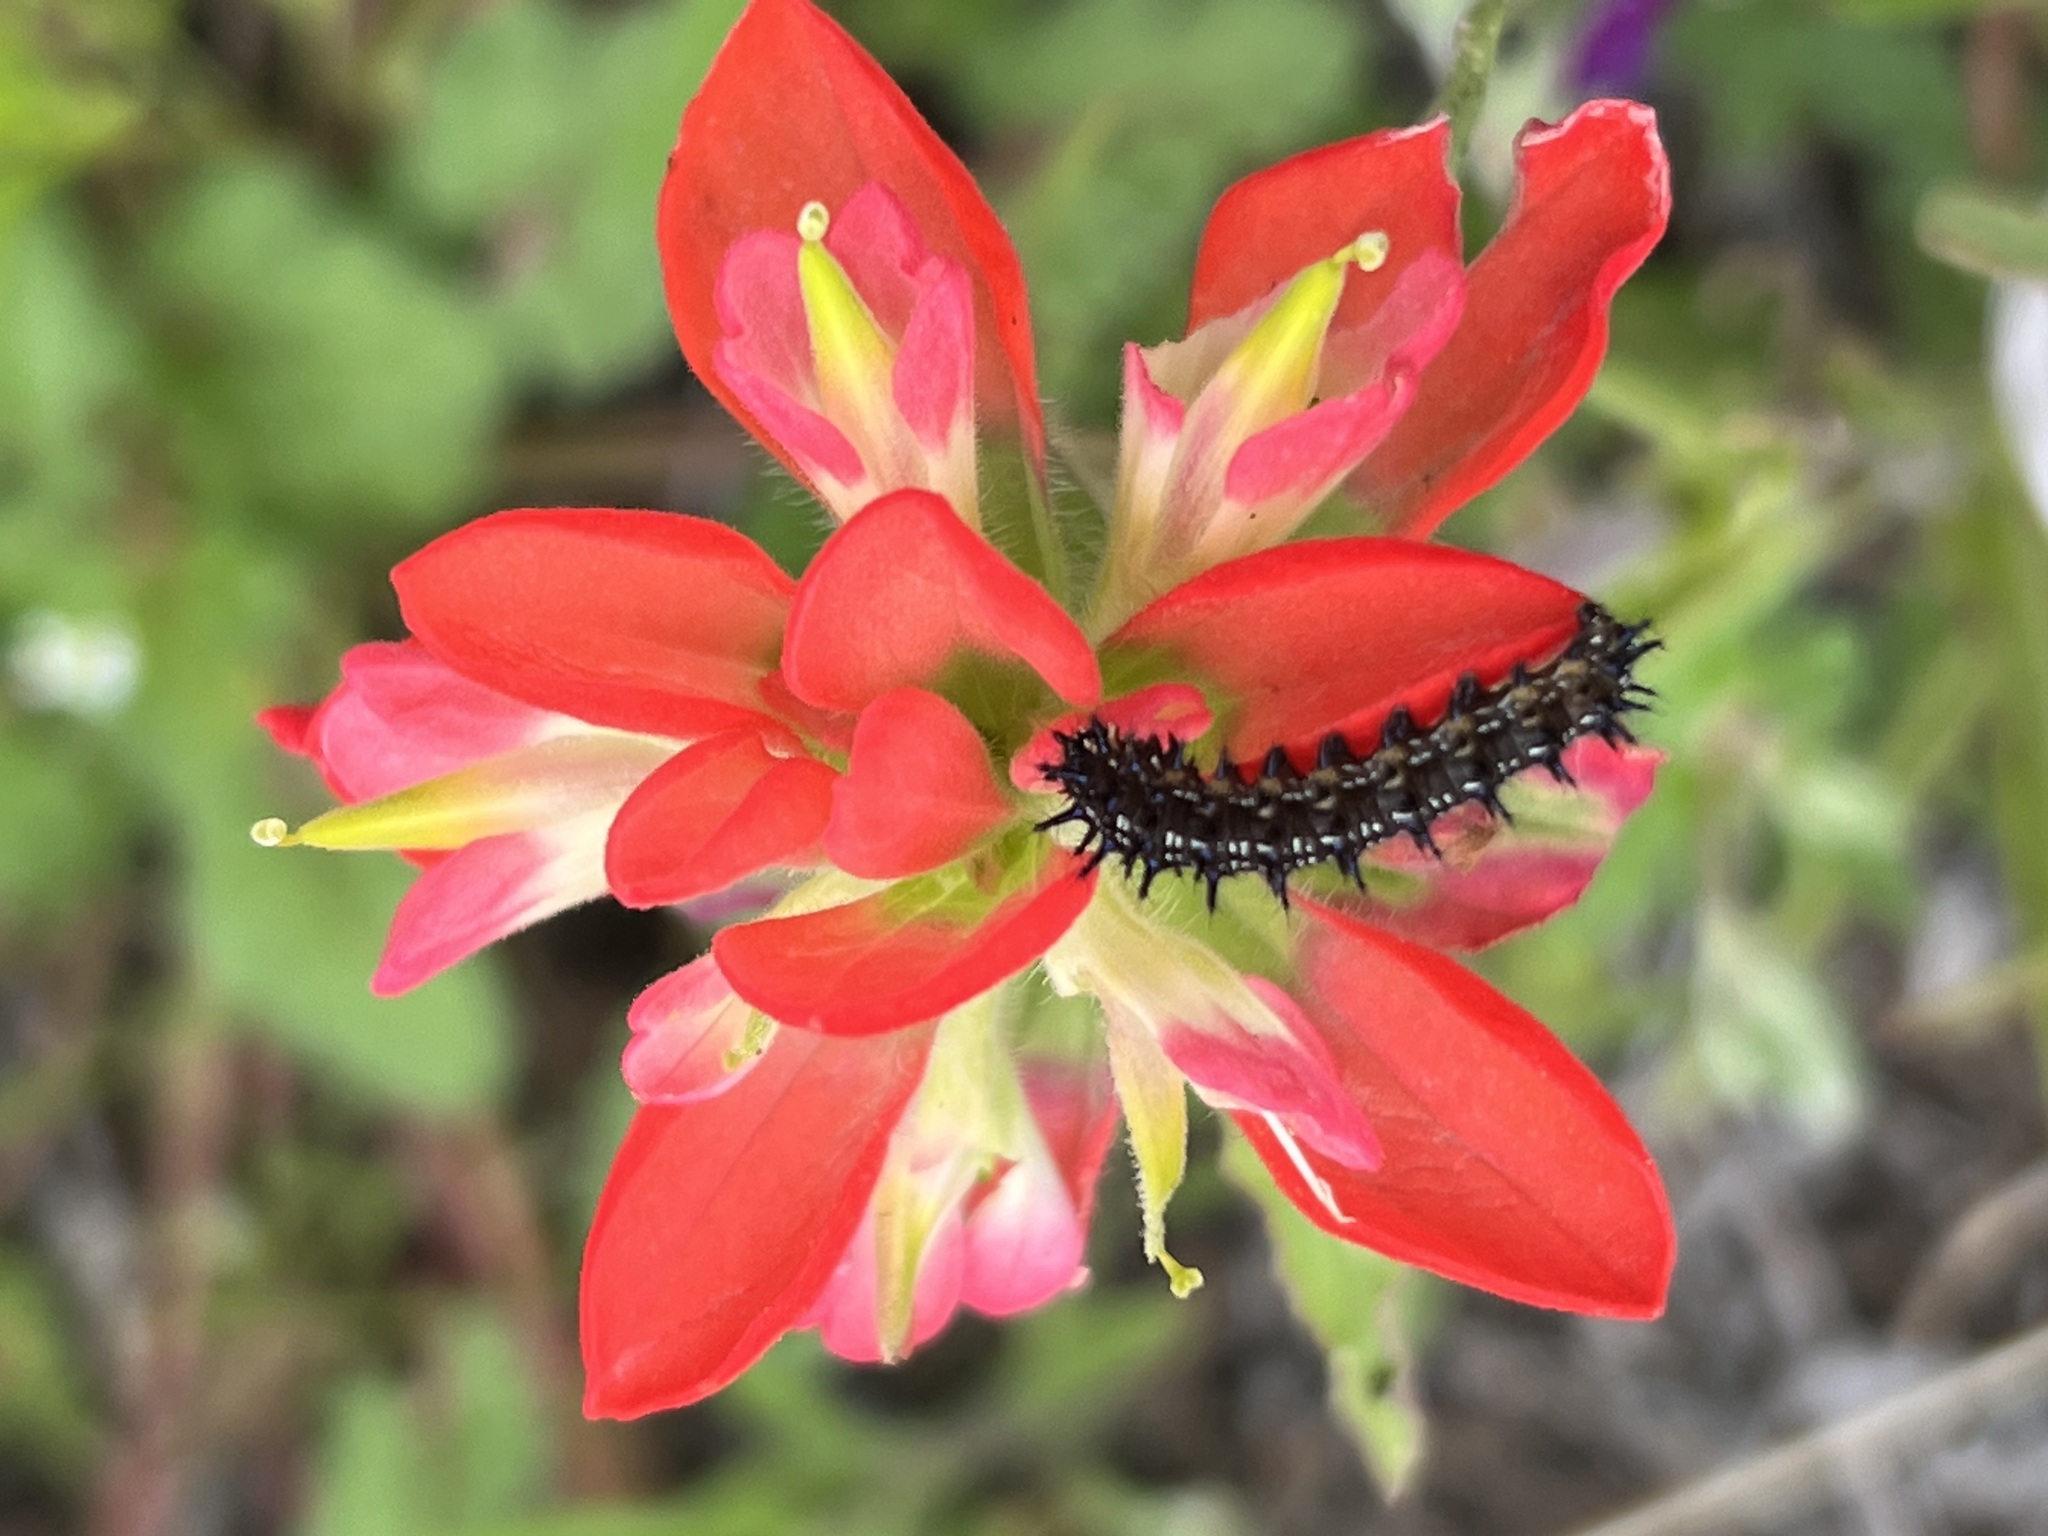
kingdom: Animalia
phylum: Arthropoda
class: Insecta
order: Lepidoptera
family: Nymphalidae
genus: Junonia
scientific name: Junonia coenia
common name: Common buckeye
